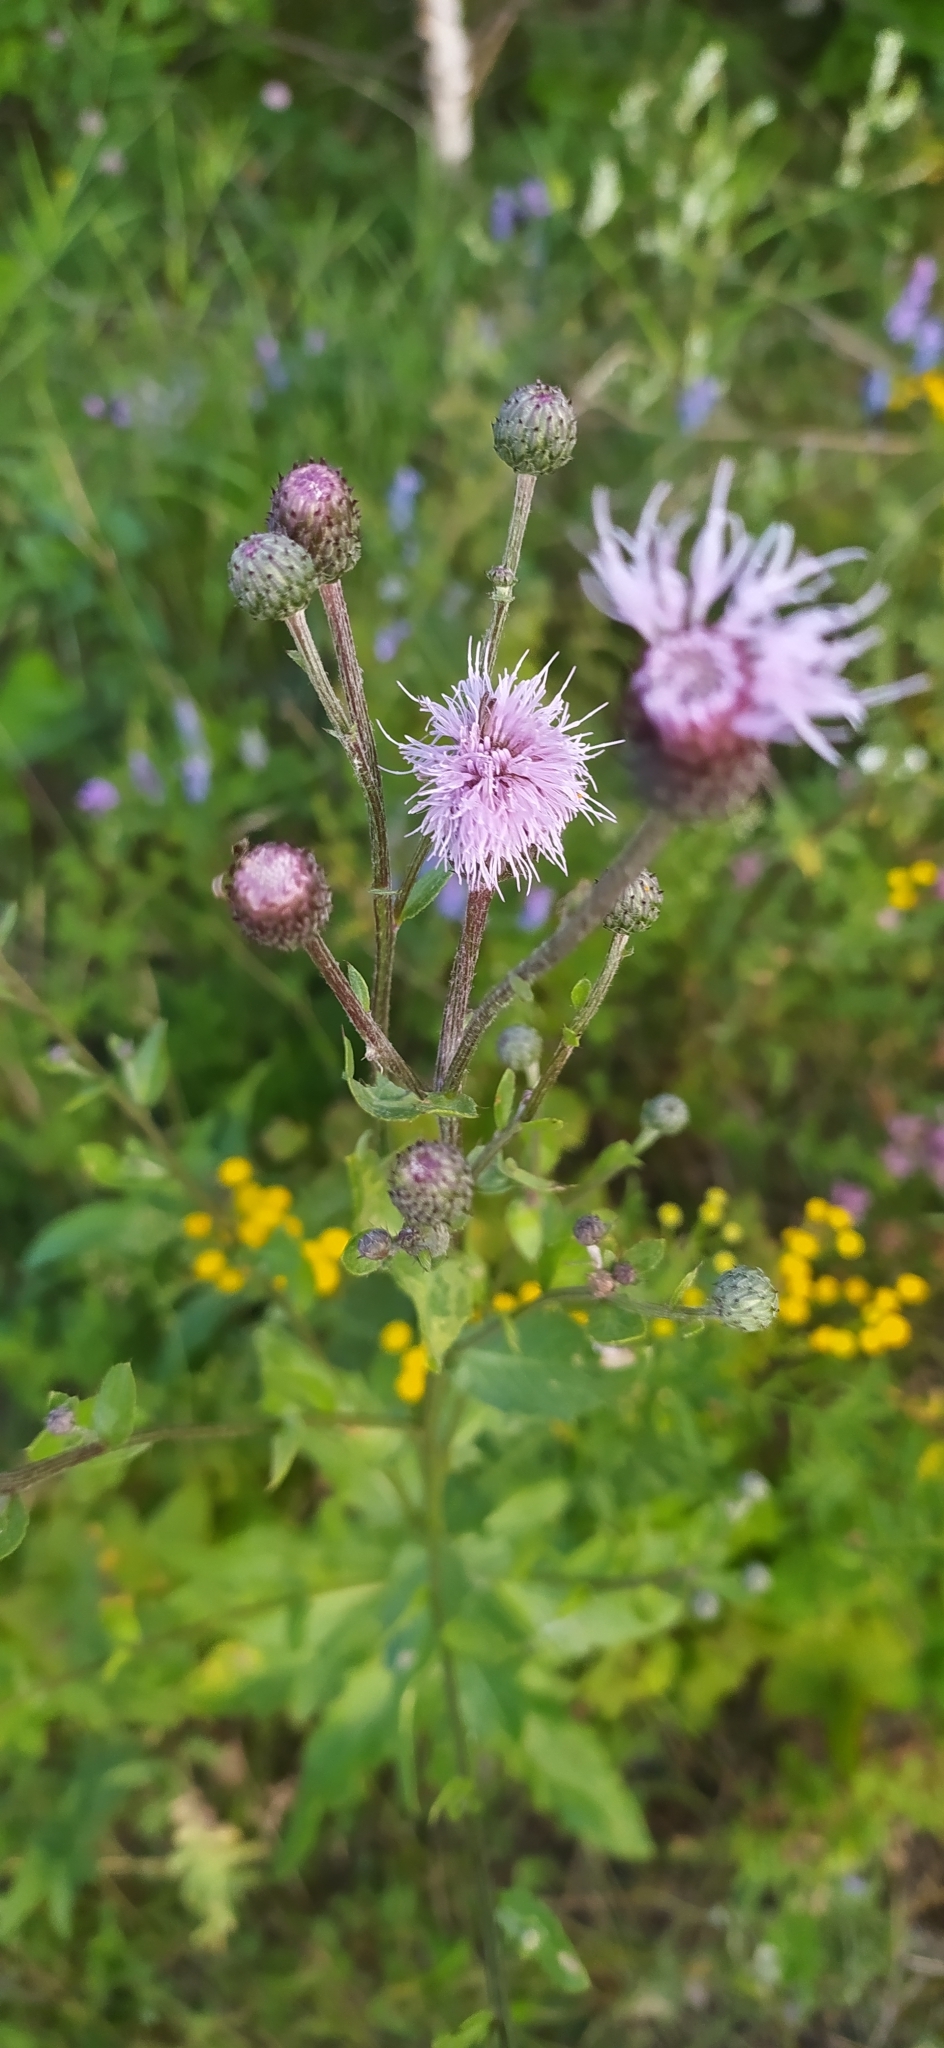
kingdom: Plantae
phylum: Tracheophyta
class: Magnoliopsida
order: Asterales
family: Asteraceae
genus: Cirsium
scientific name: Cirsium arvense
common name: Creeping thistle
